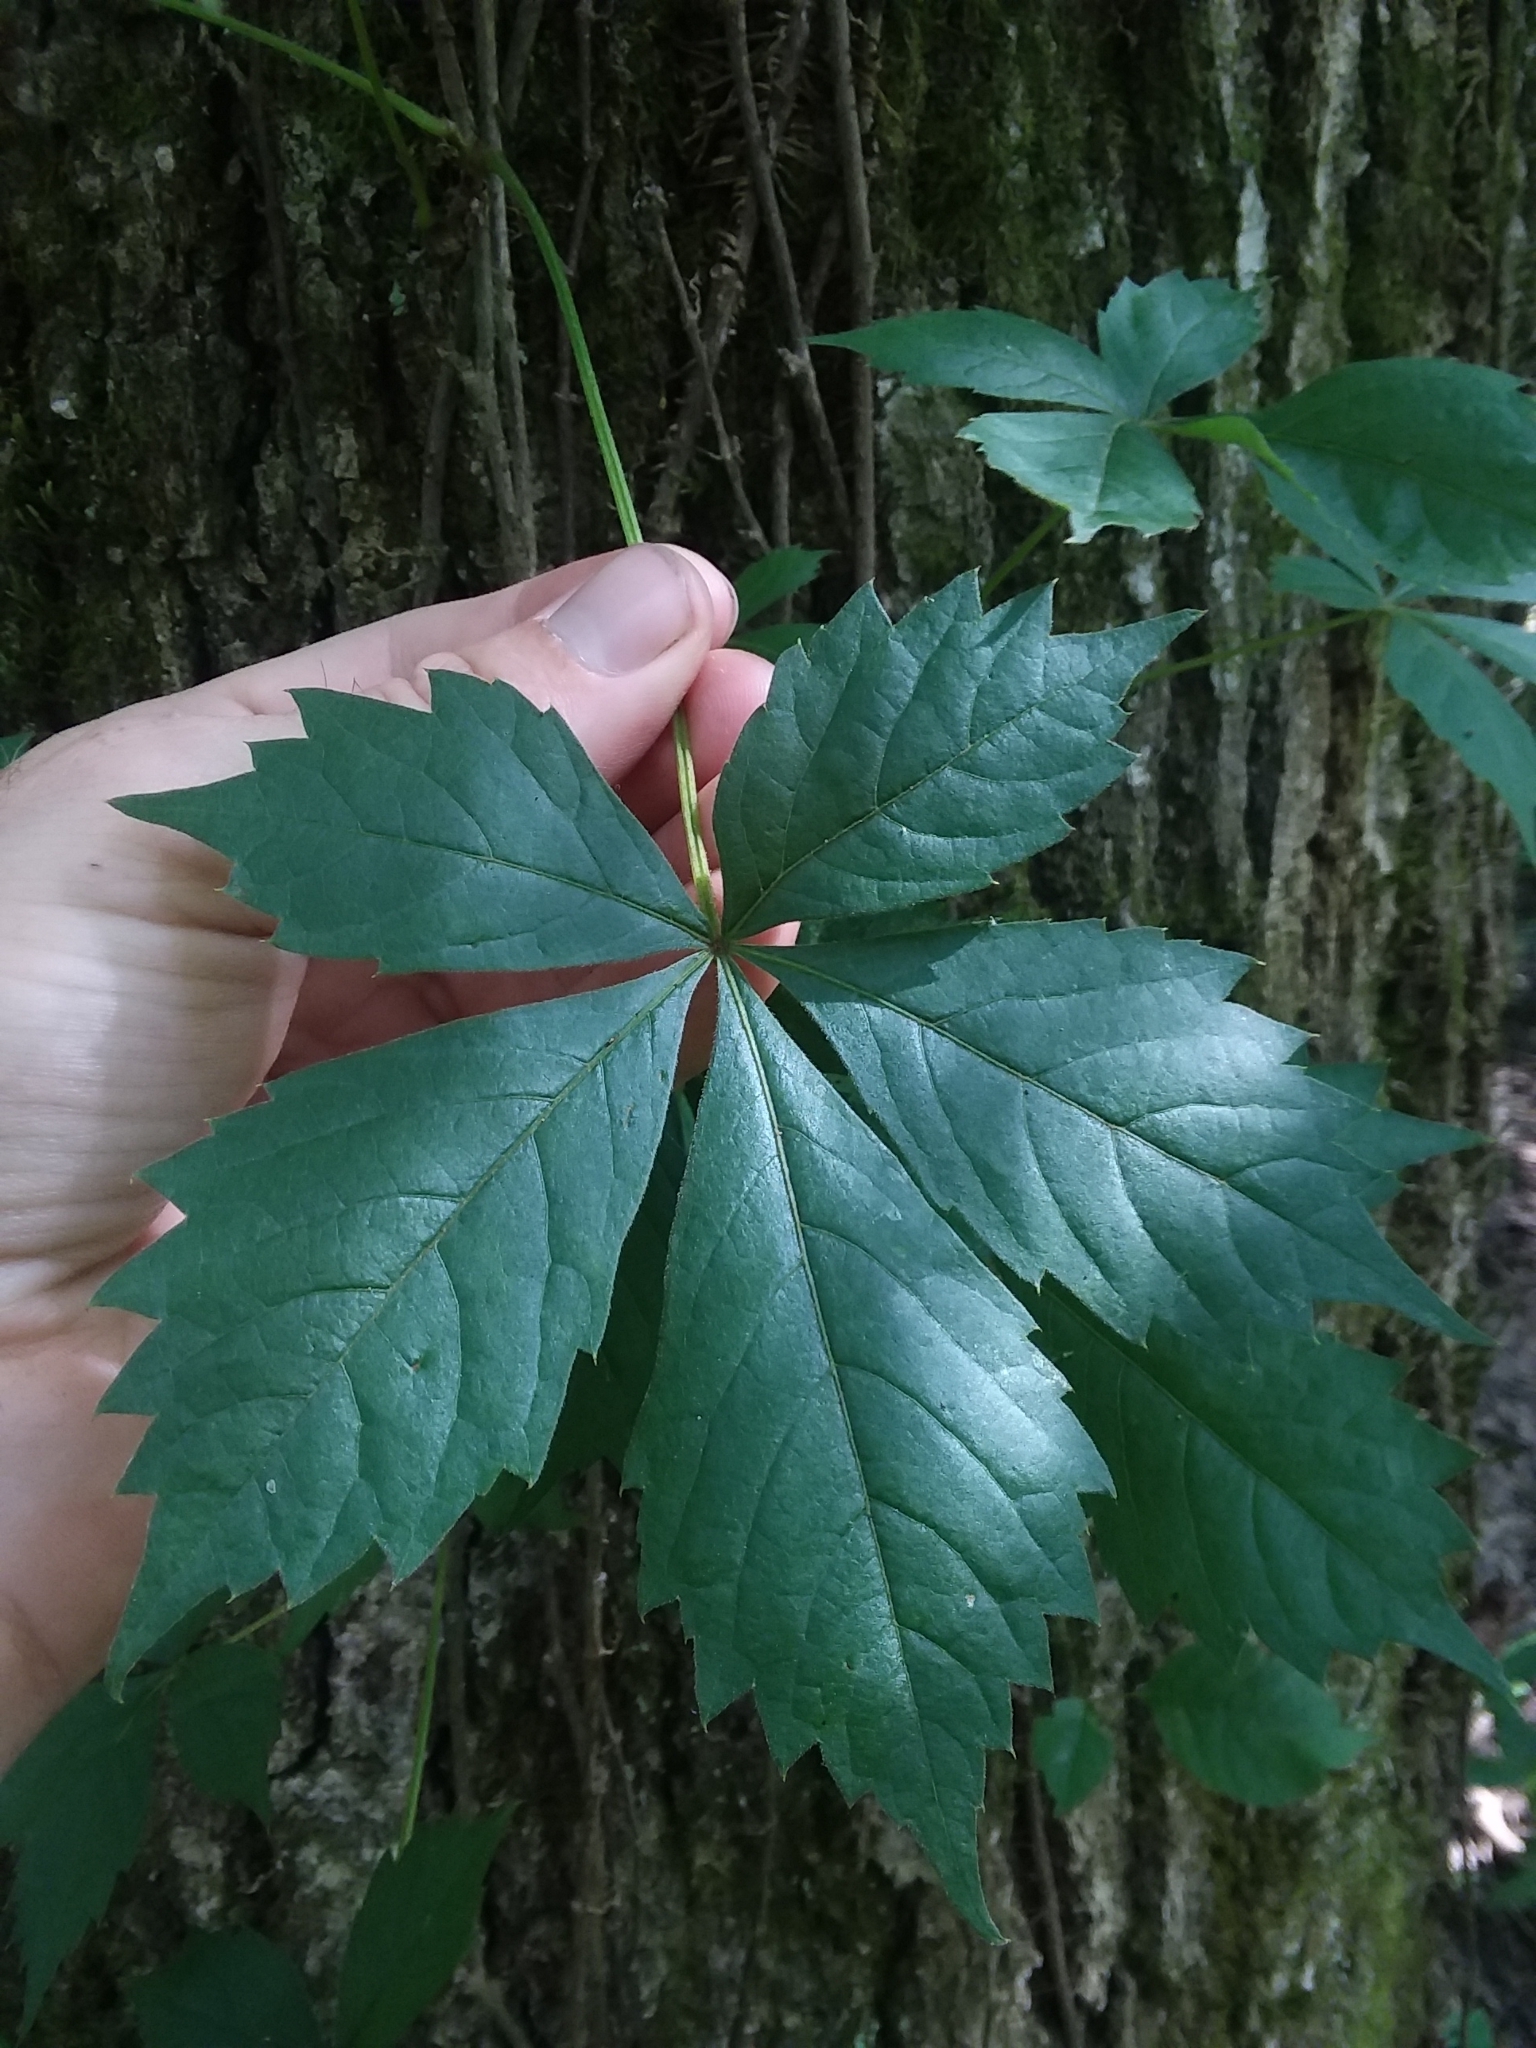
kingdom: Plantae
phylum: Tracheophyta
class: Magnoliopsida
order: Vitales
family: Vitaceae
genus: Parthenocissus
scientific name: Parthenocissus quinquefolia
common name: Virginia-creeper
